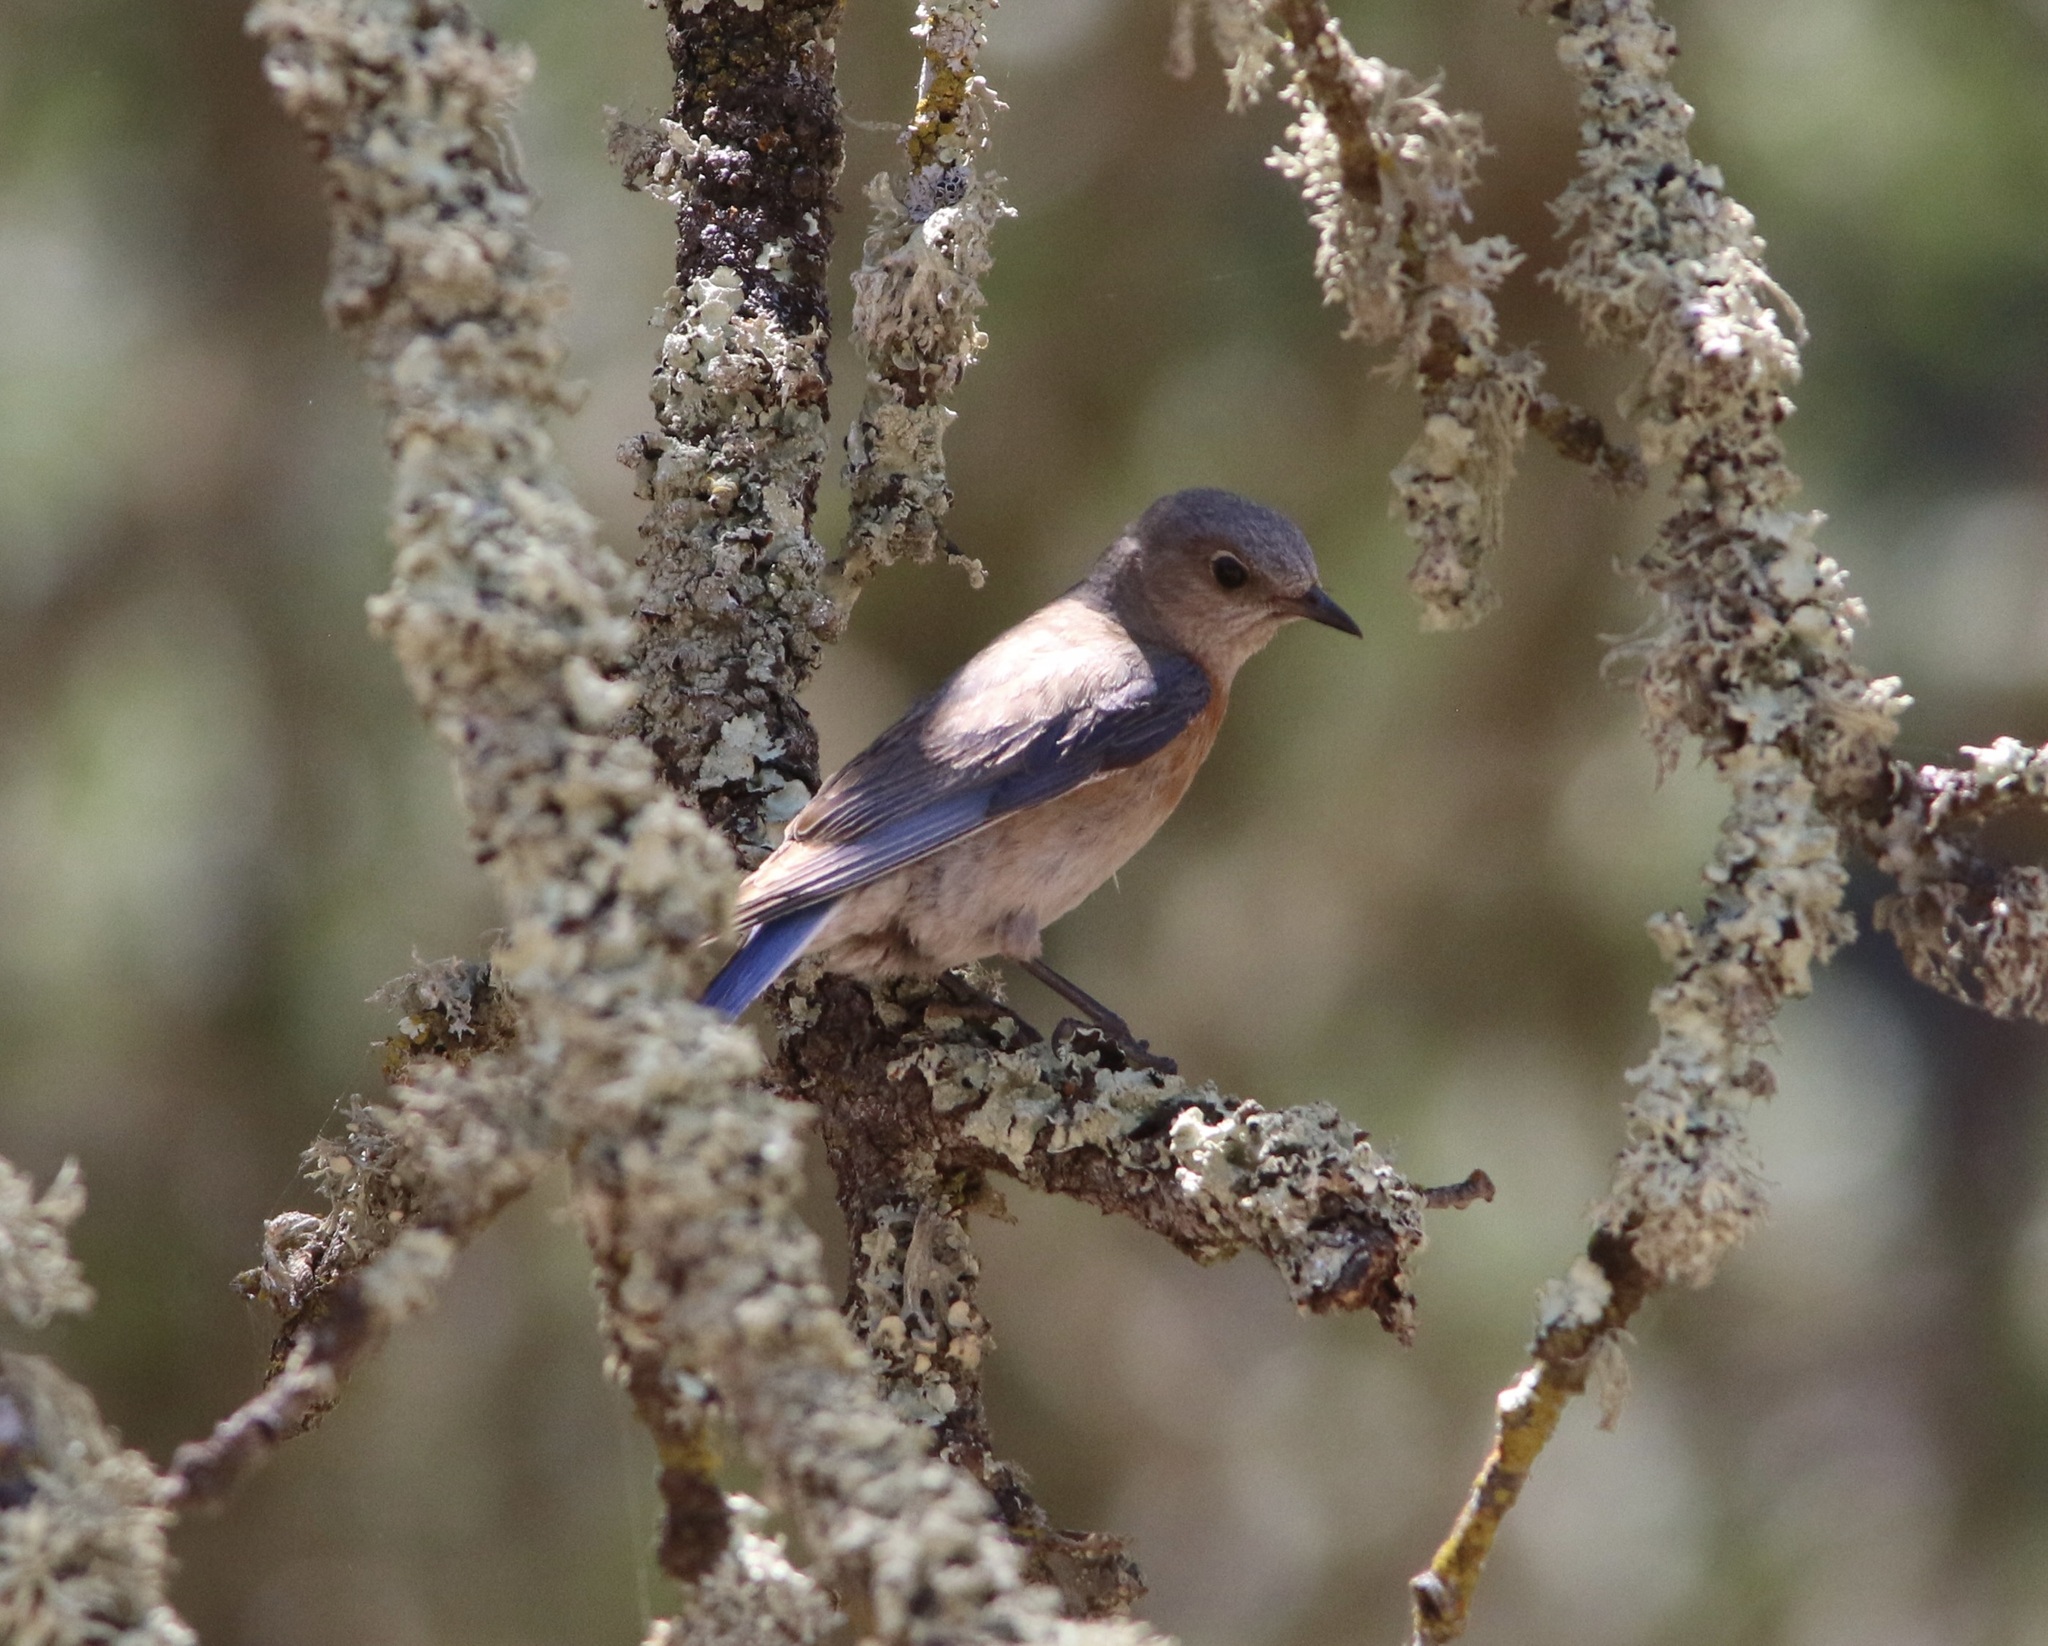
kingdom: Animalia
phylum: Chordata
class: Aves
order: Passeriformes
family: Turdidae
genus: Sialia
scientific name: Sialia mexicana
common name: Western bluebird
